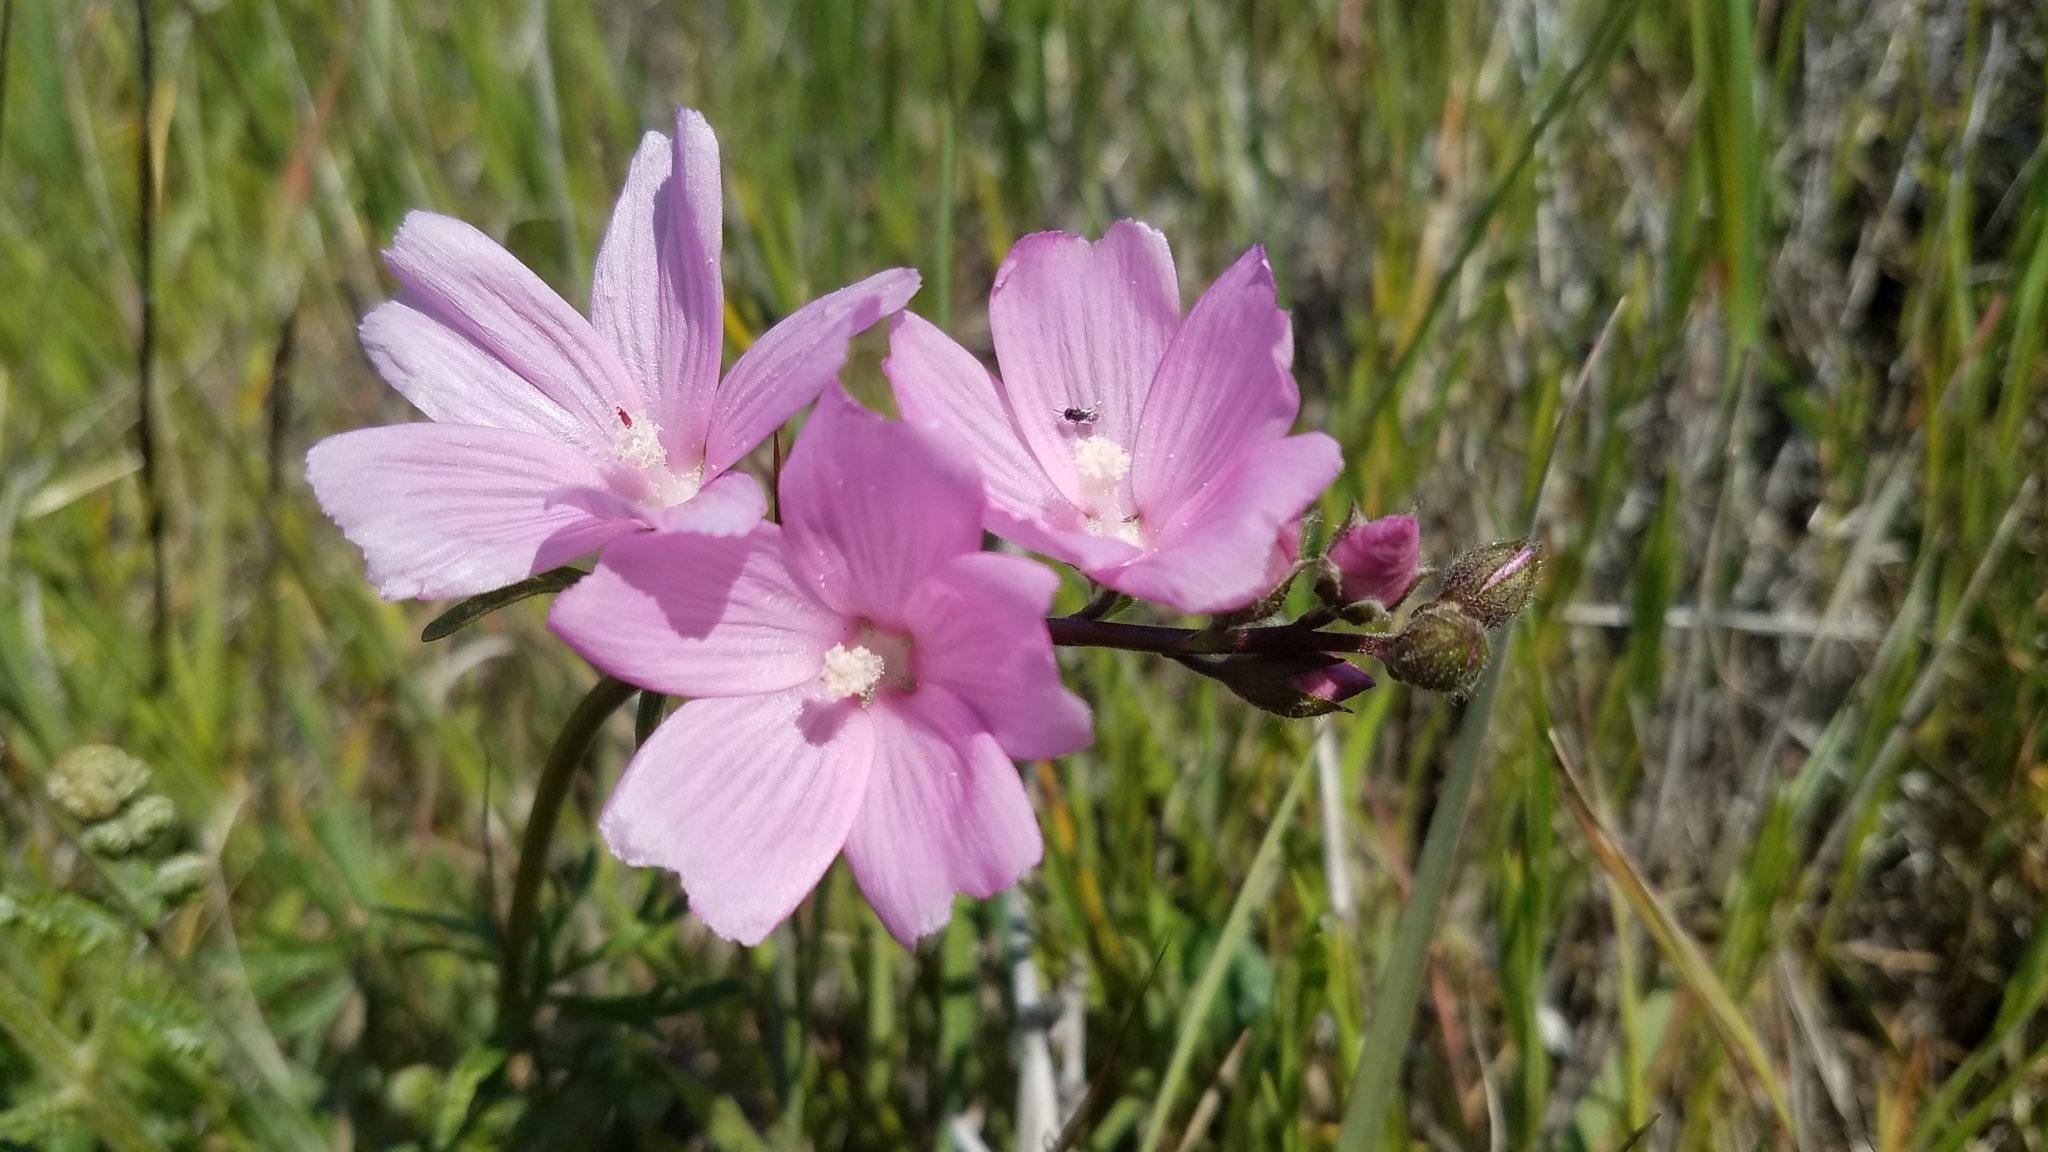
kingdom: Plantae
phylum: Tracheophyta
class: Magnoliopsida
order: Malvales
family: Malvaceae
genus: Sidalcea
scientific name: Sidalcea malviflora
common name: Greek mallow
